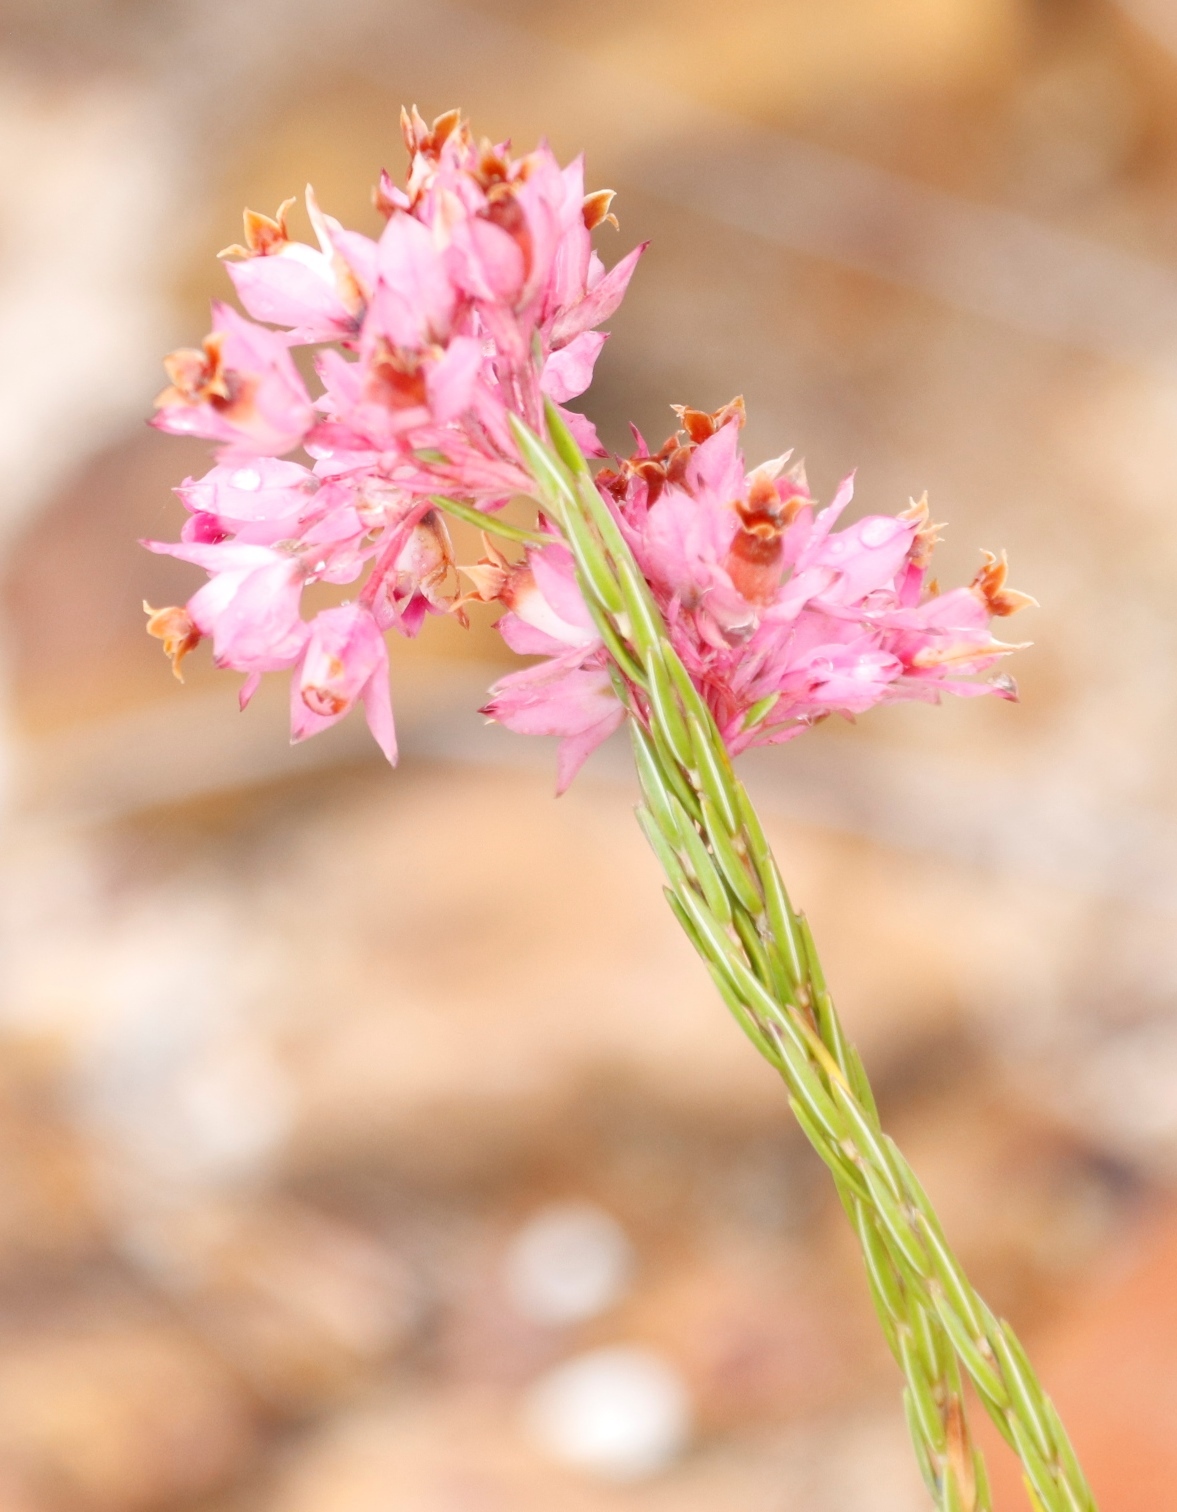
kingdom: Plantae
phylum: Tracheophyta
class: Magnoliopsida
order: Ericales
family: Ericaceae
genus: Erica
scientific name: Erica corifolia
